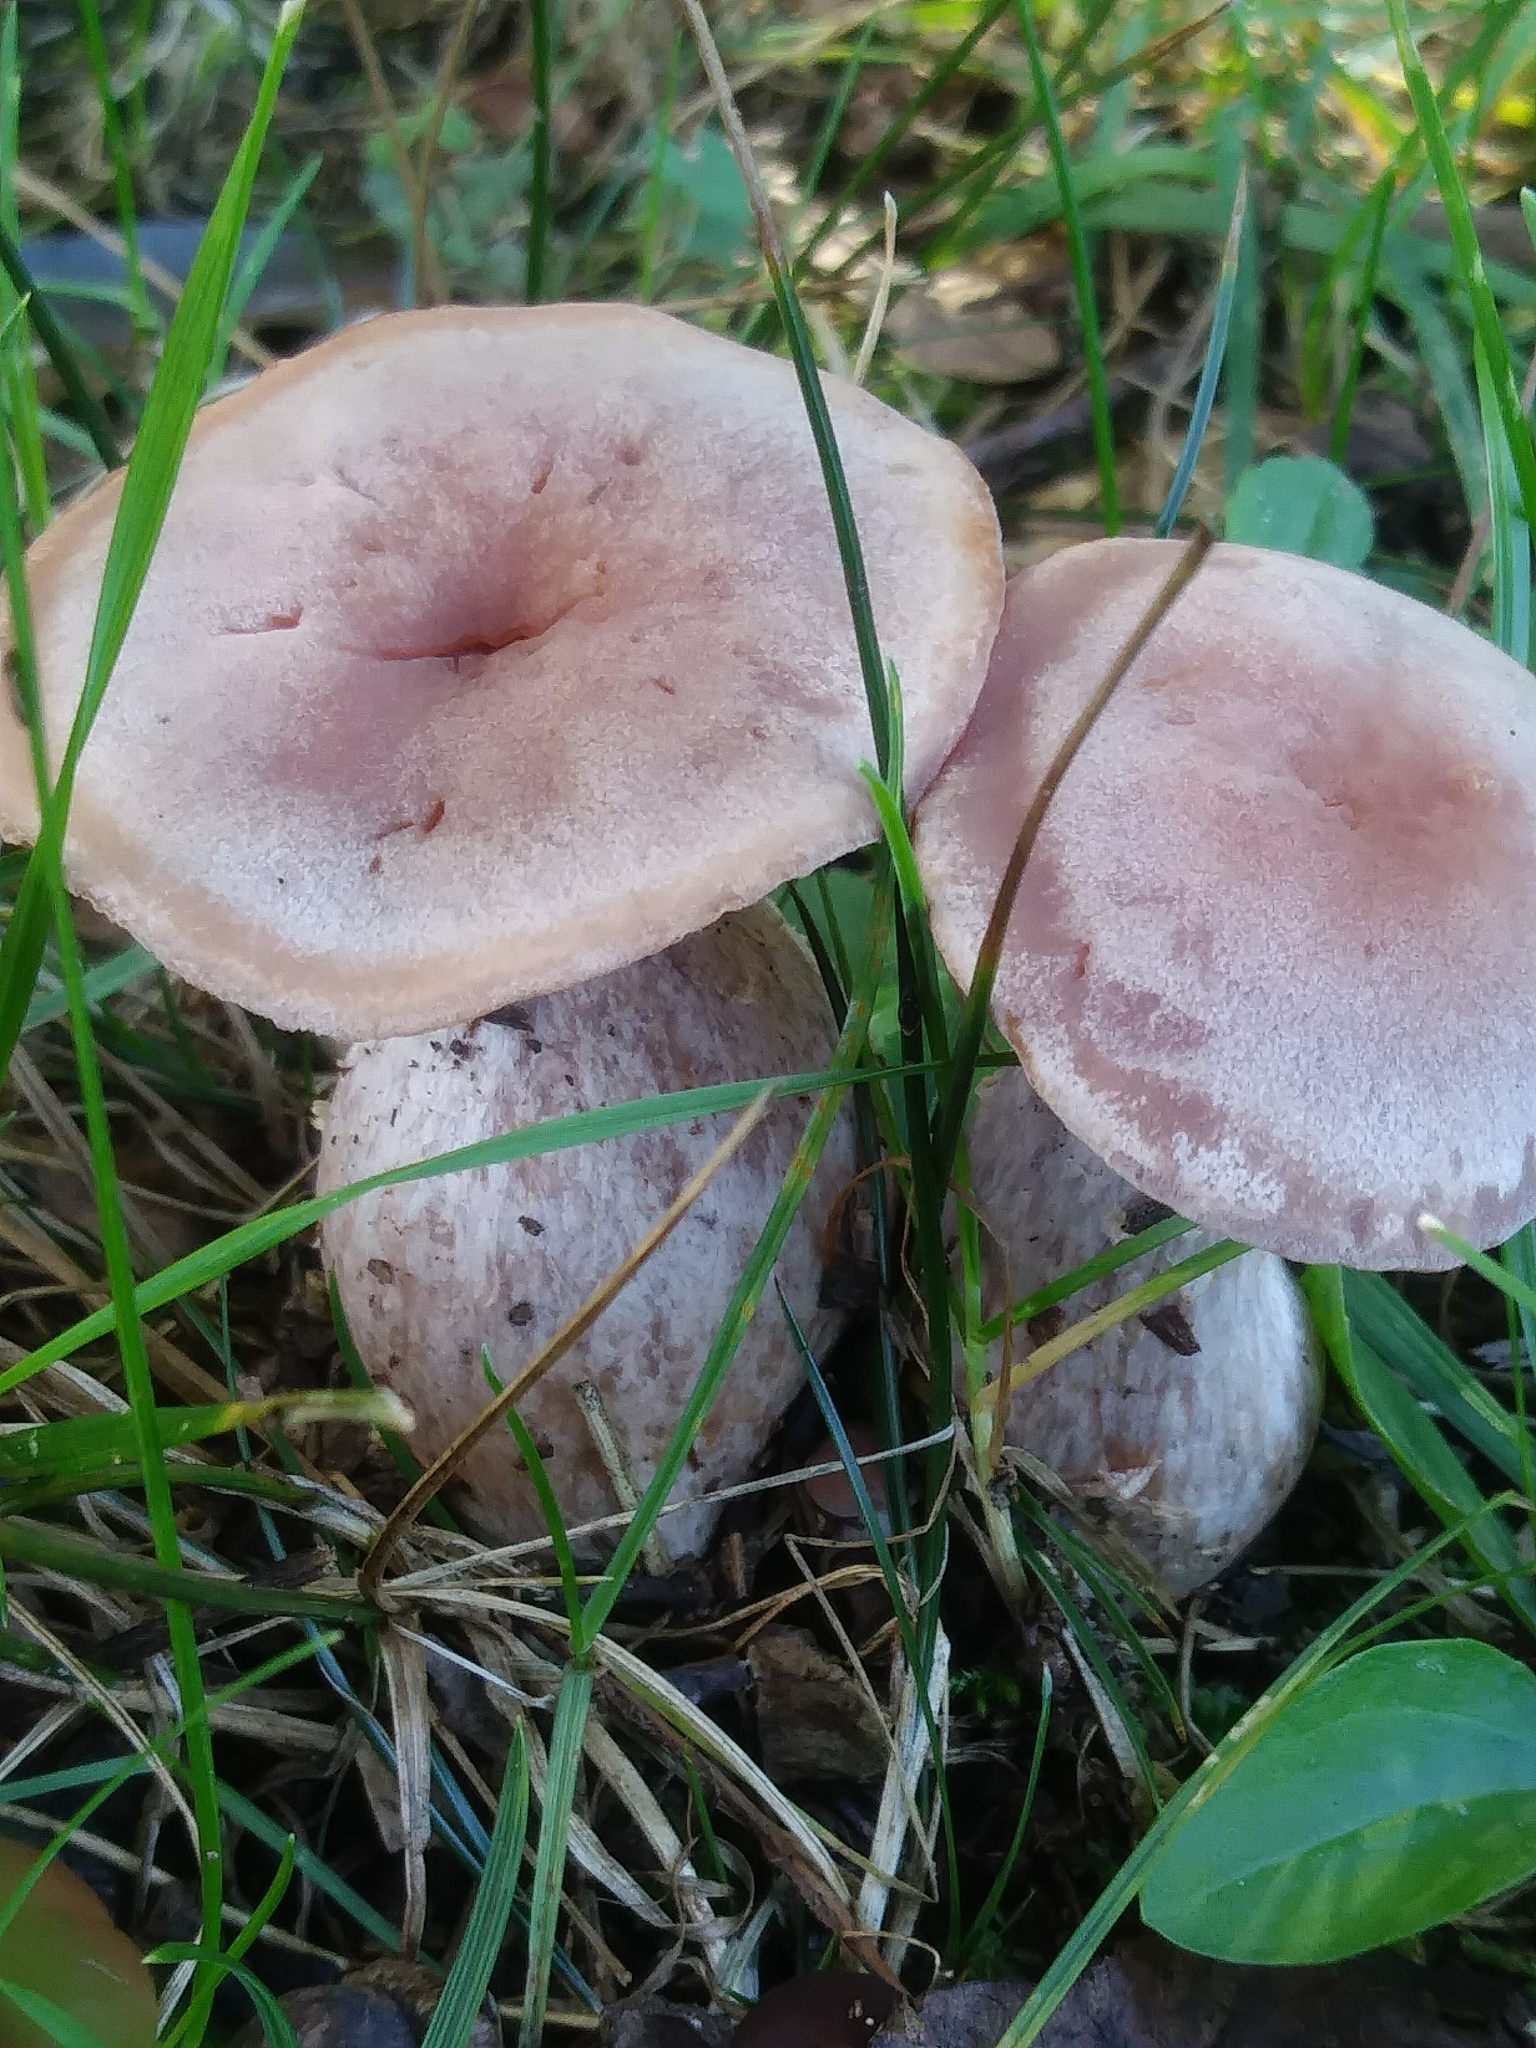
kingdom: Fungi
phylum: Basidiomycota
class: Agaricomycetes
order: Agaricales
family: Hydnangiaceae
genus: Laccaria
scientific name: Laccaria ochropurpurea
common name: Purple laccaria
